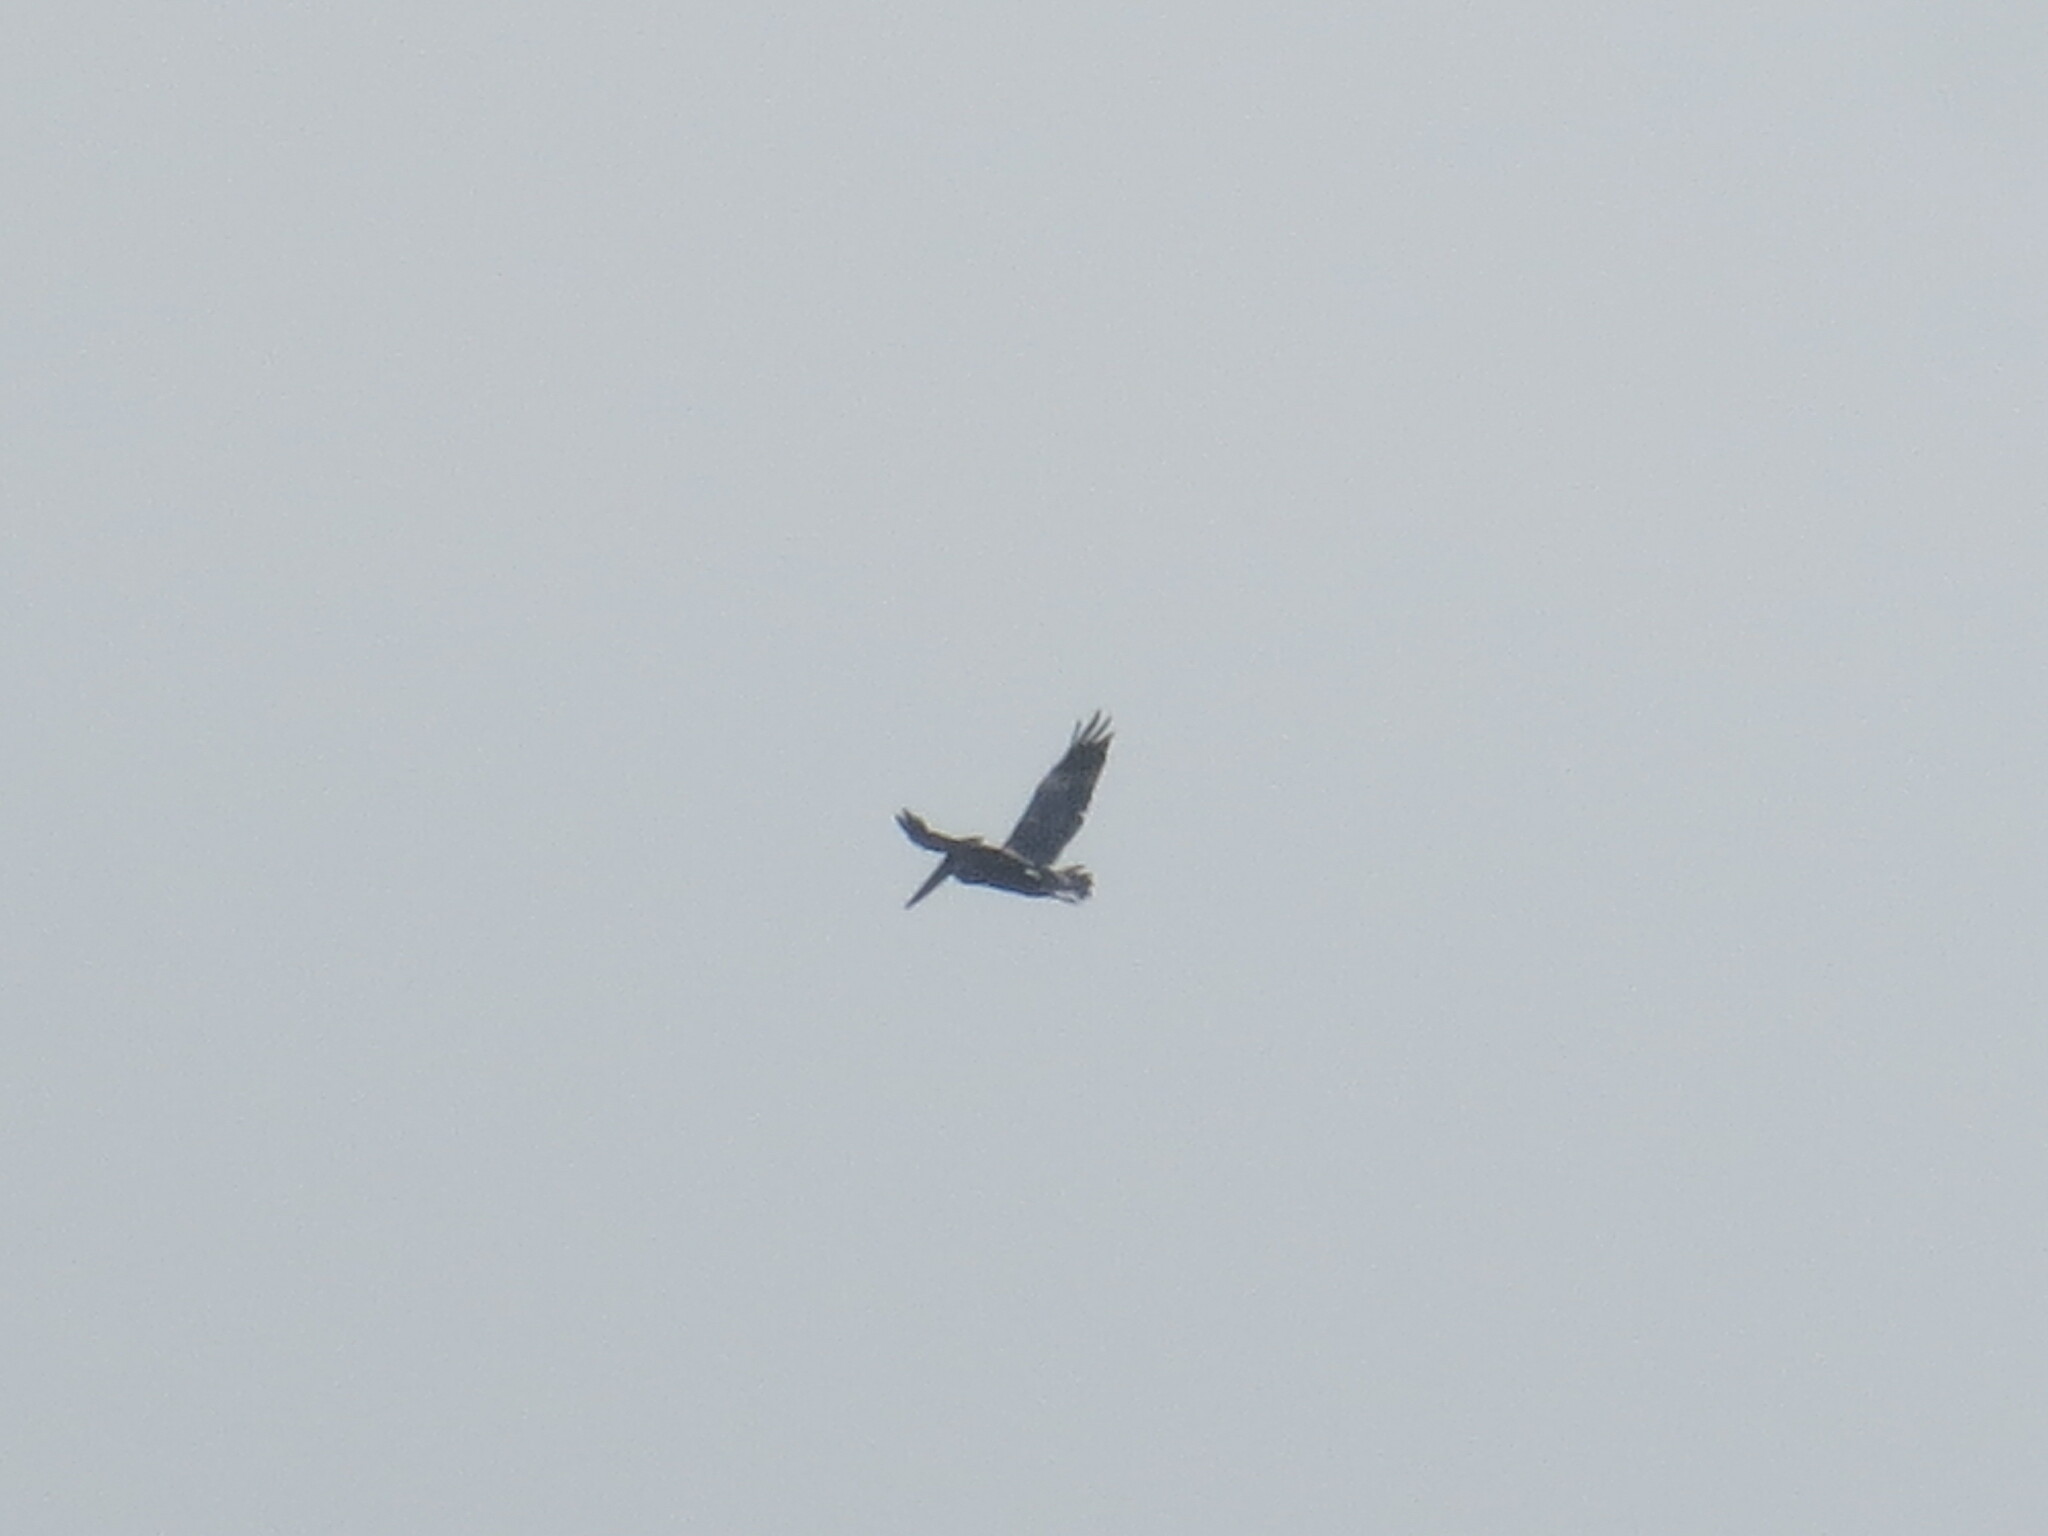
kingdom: Animalia
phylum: Chordata
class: Aves
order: Pelecaniformes
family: Pelecanidae
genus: Pelecanus
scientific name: Pelecanus occidentalis
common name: Brown pelican
